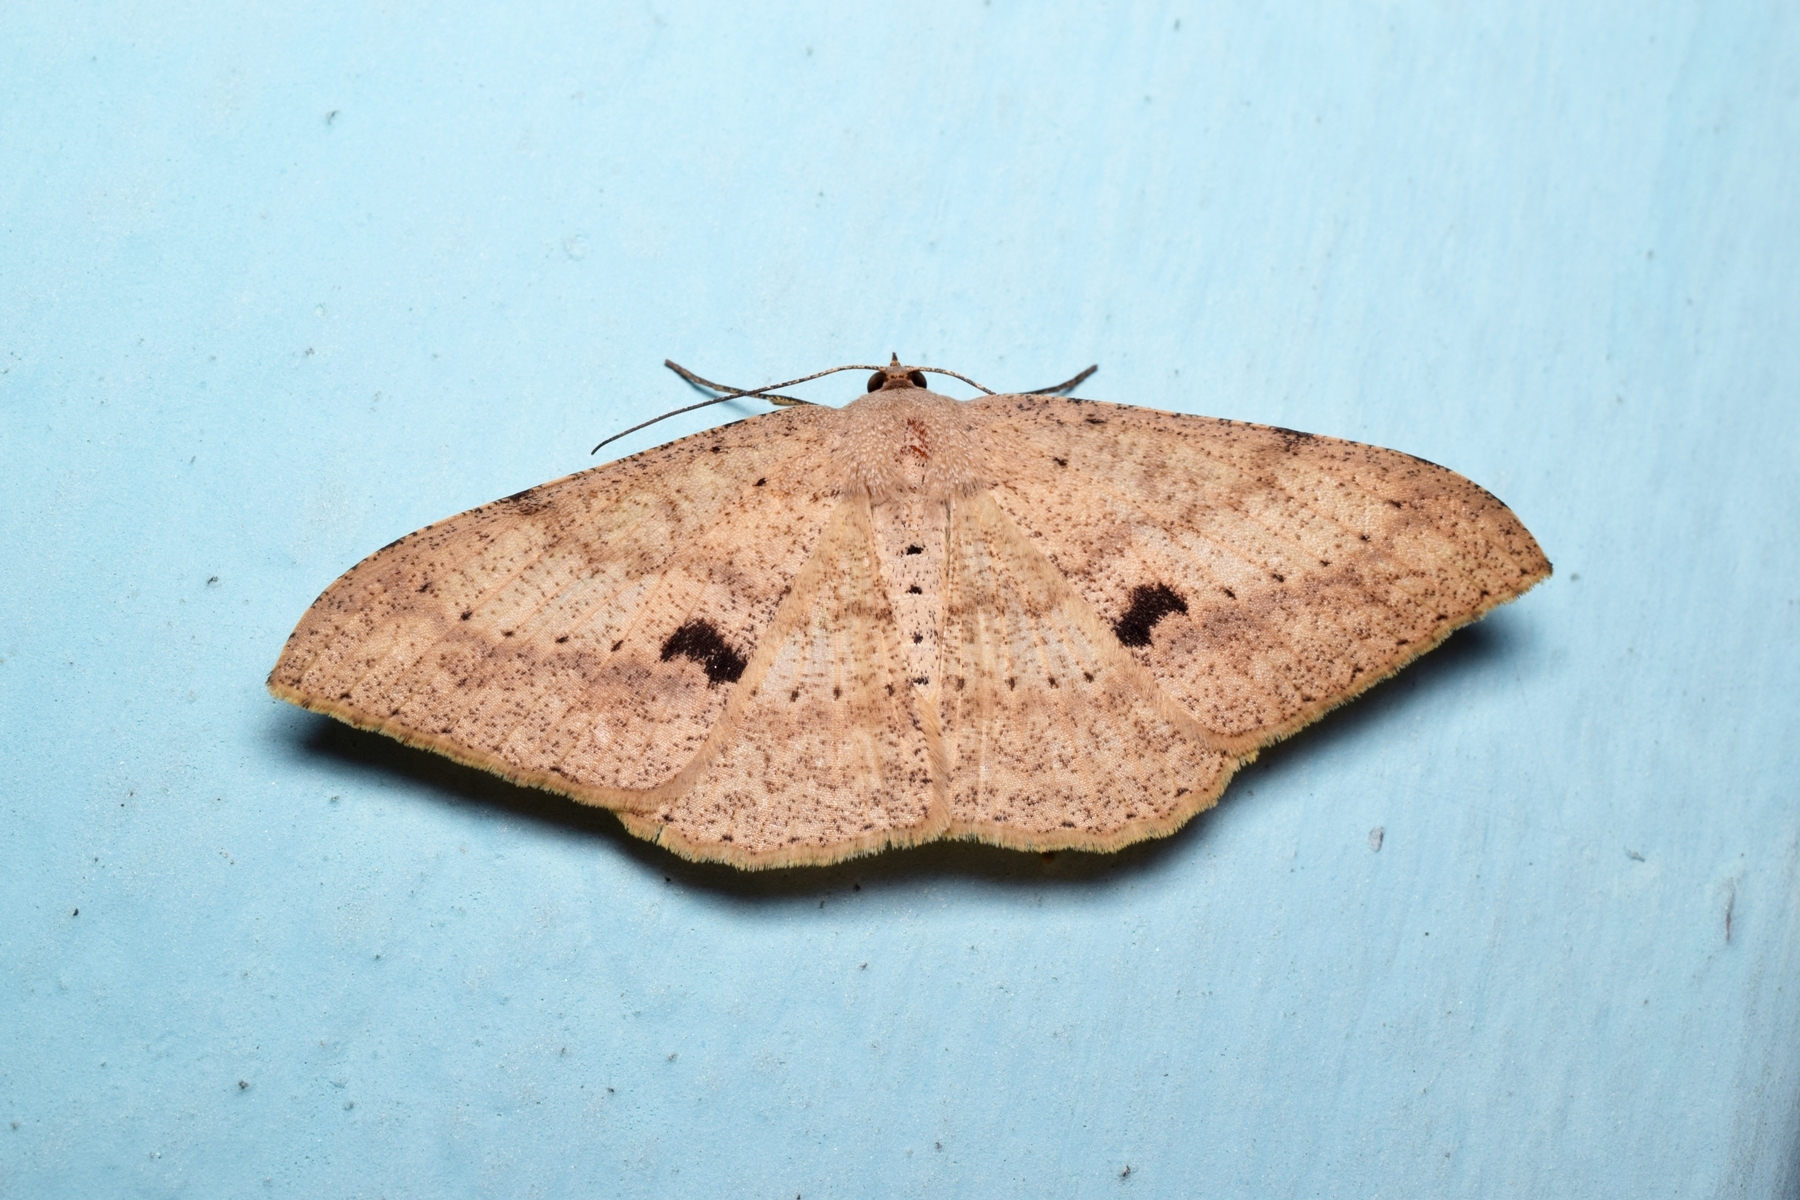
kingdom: Animalia
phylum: Arthropoda
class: Insecta
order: Lepidoptera
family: Geometridae
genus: Luxiaria
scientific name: Luxiaria mitorrhaphes
